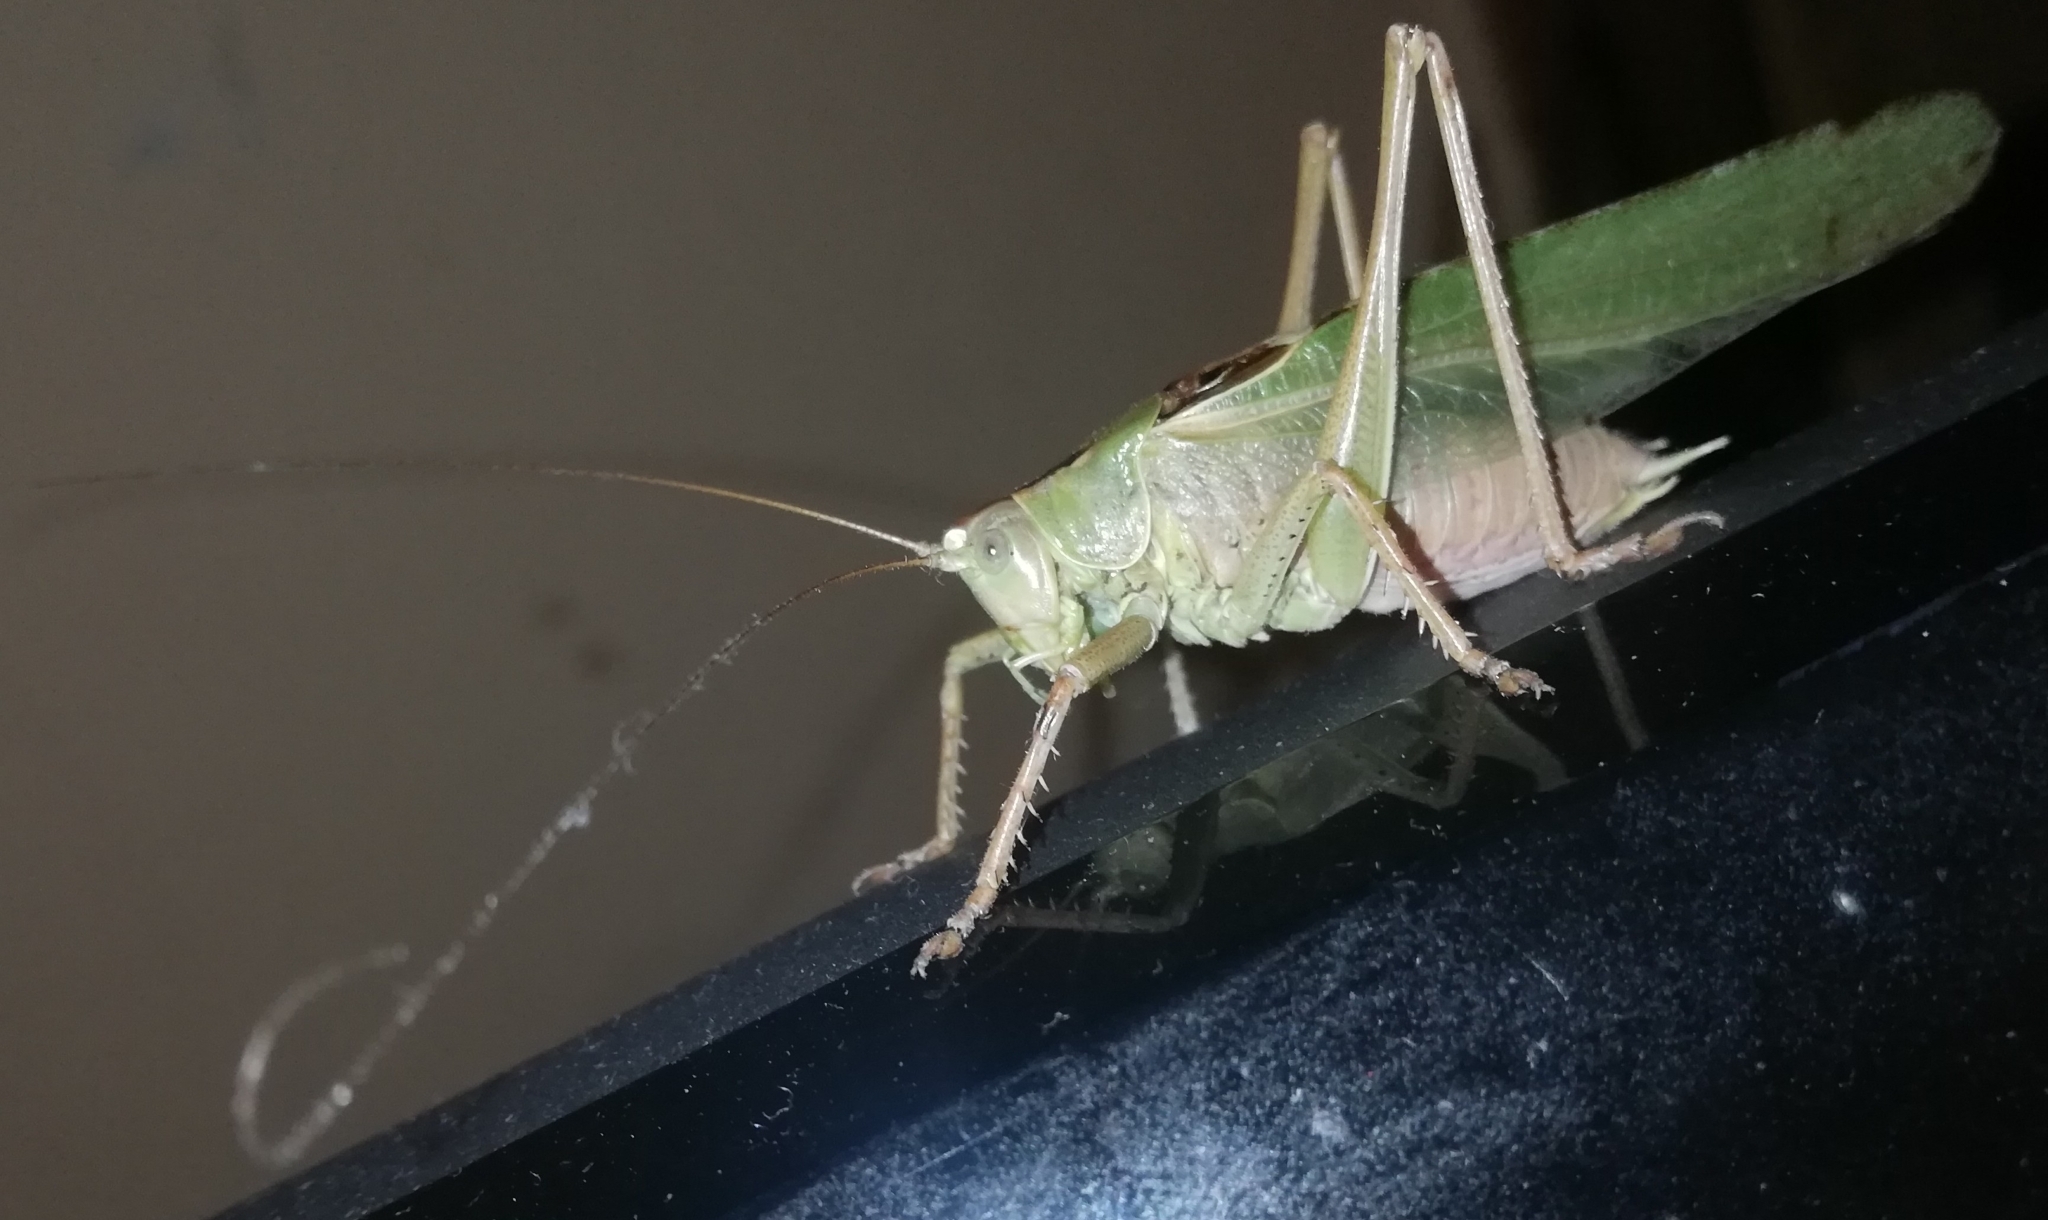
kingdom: Animalia
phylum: Arthropoda
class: Insecta
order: Orthoptera
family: Tettigoniidae
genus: Tettigonia
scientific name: Tettigonia viridissima
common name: Great green bush-cricket
